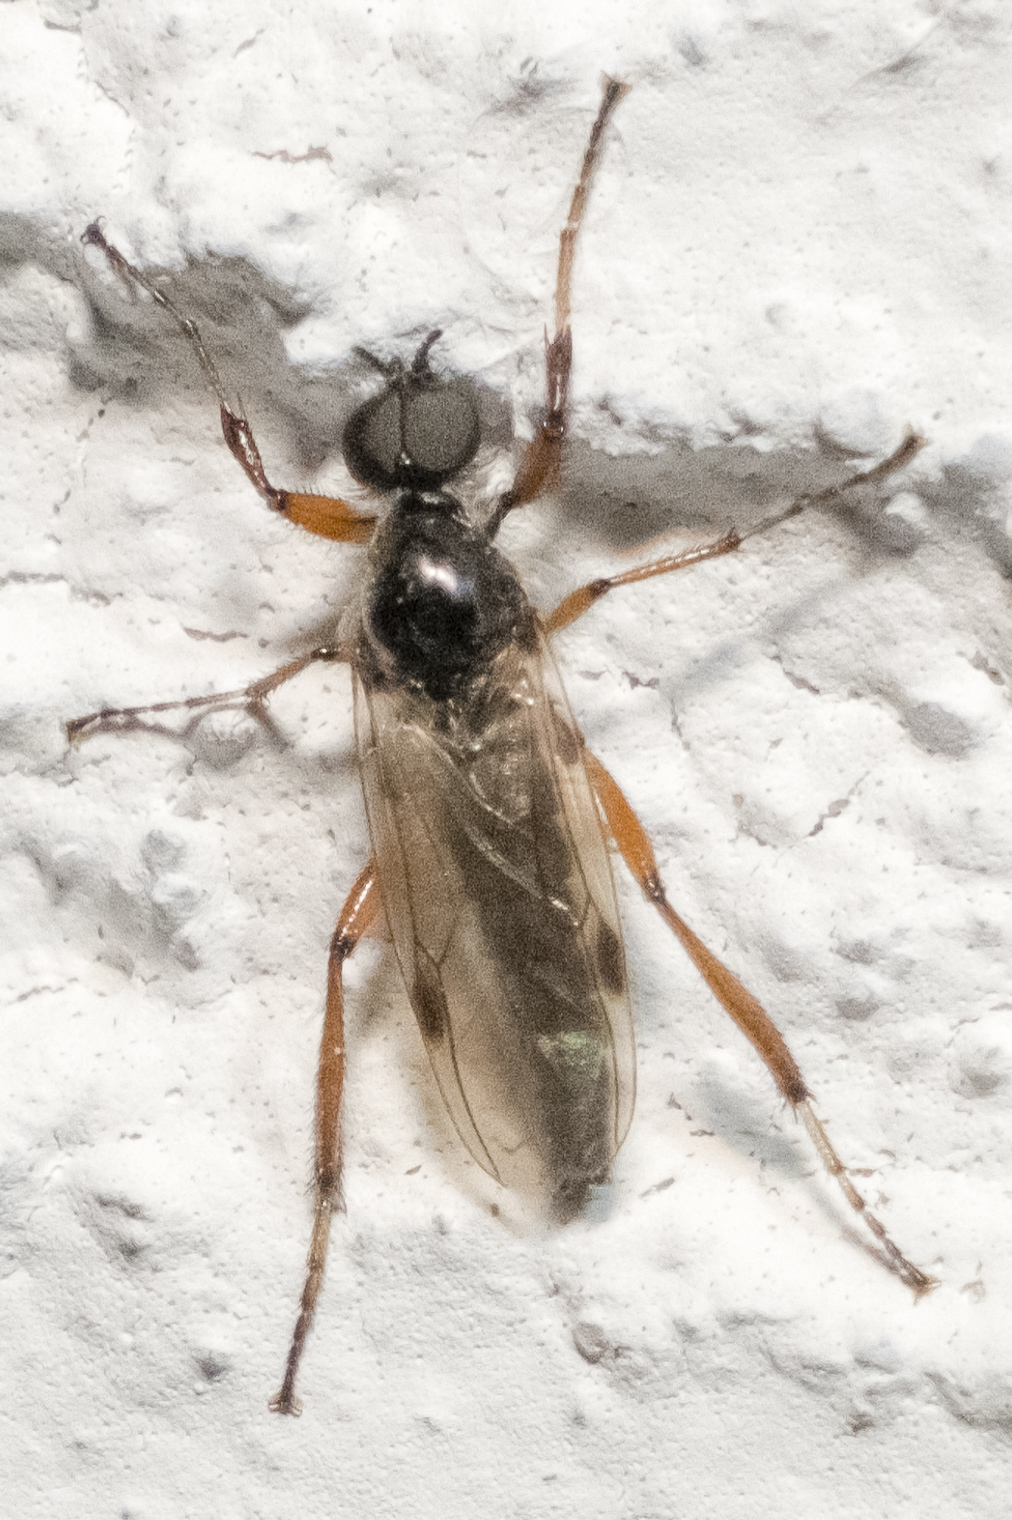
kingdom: Animalia
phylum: Arthropoda
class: Insecta
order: Diptera
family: Bibionidae
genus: Bibio
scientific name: Bibio articulatus
